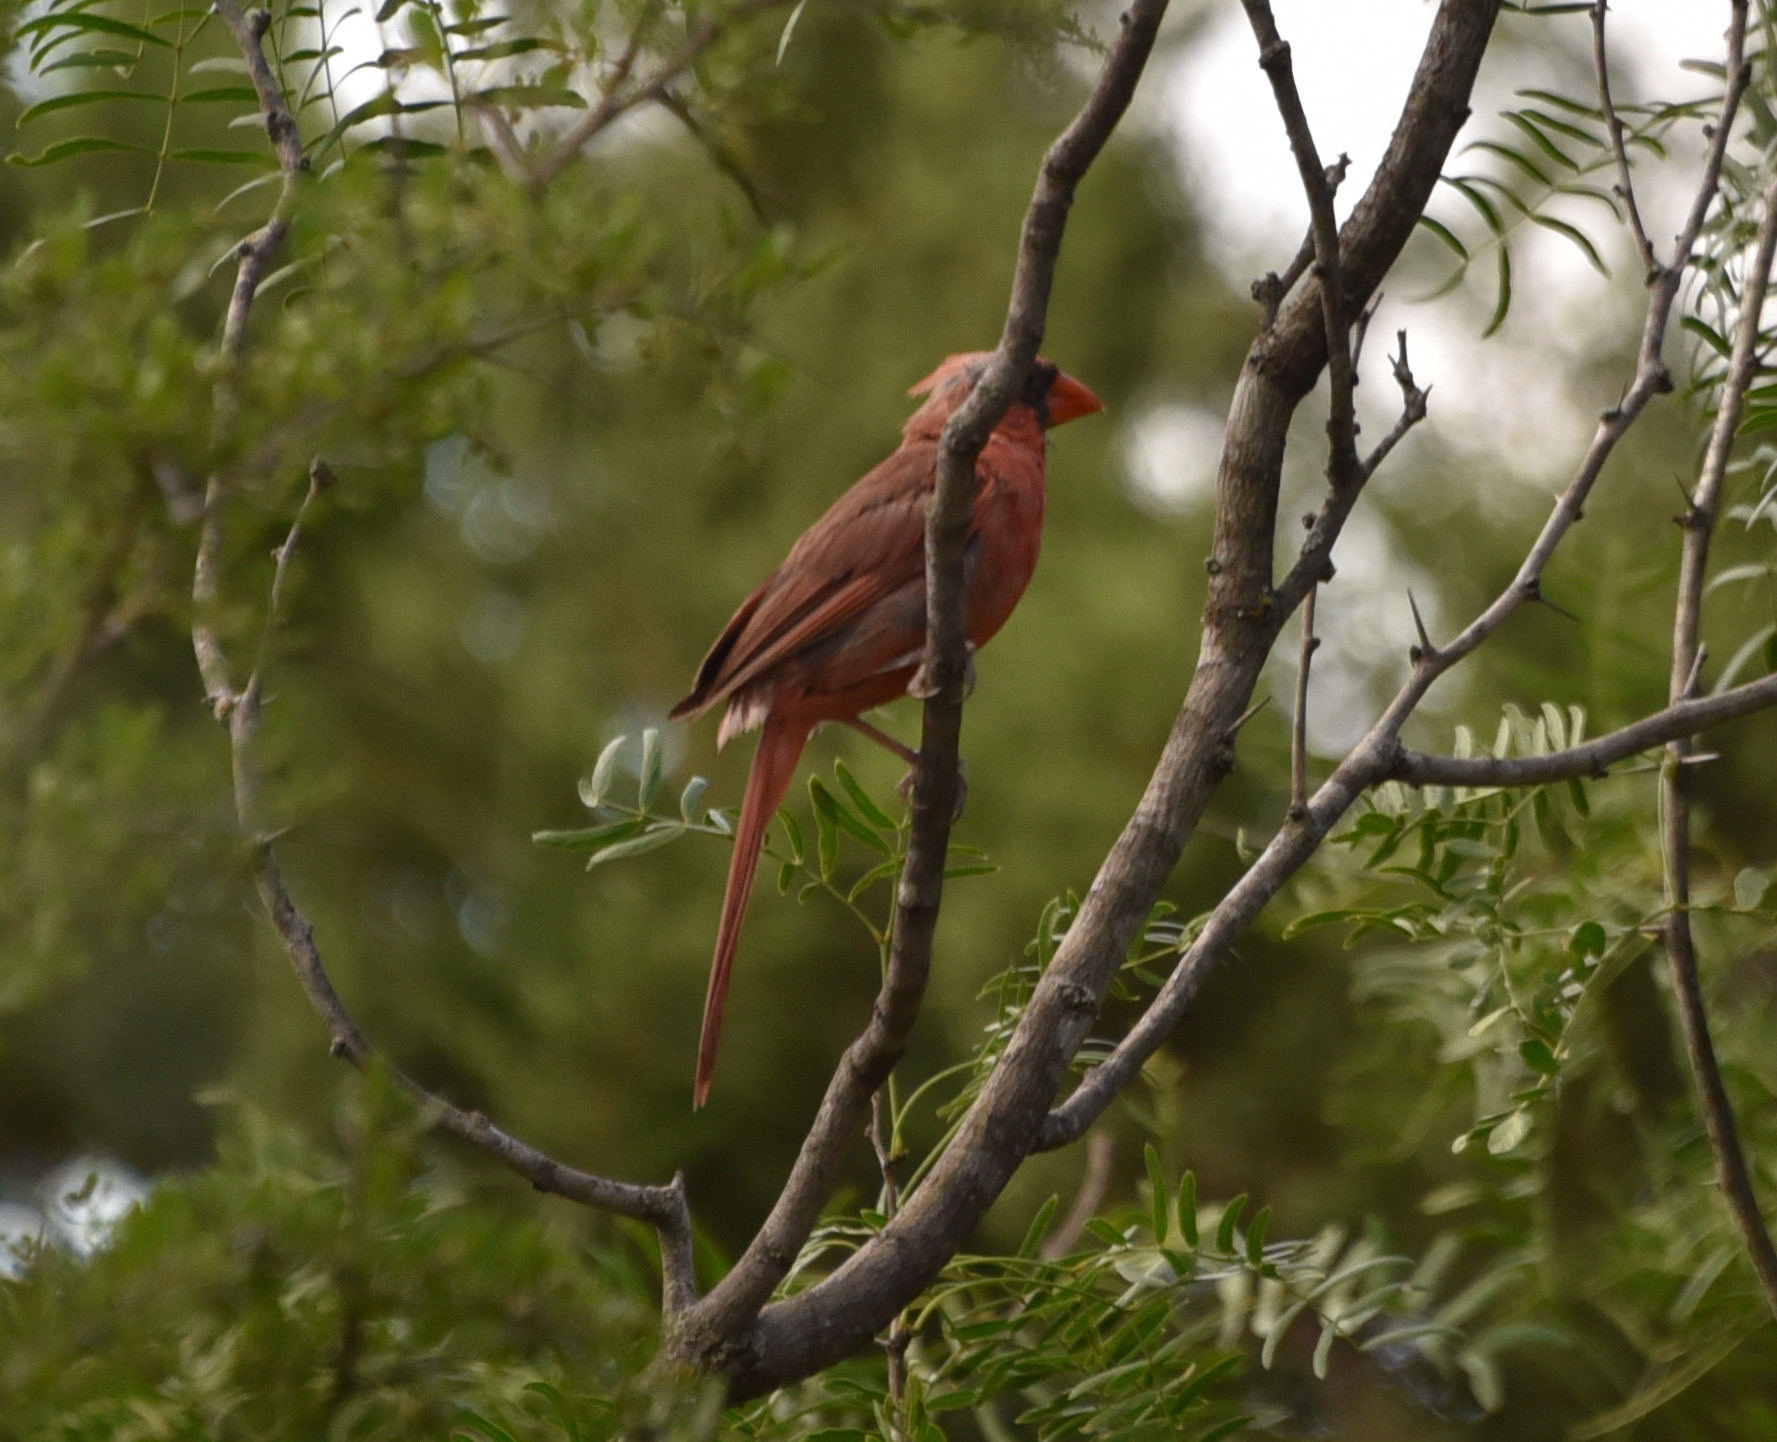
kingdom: Animalia
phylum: Chordata
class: Aves
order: Passeriformes
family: Cardinalidae
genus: Cardinalis
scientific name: Cardinalis cardinalis
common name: Northern cardinal
